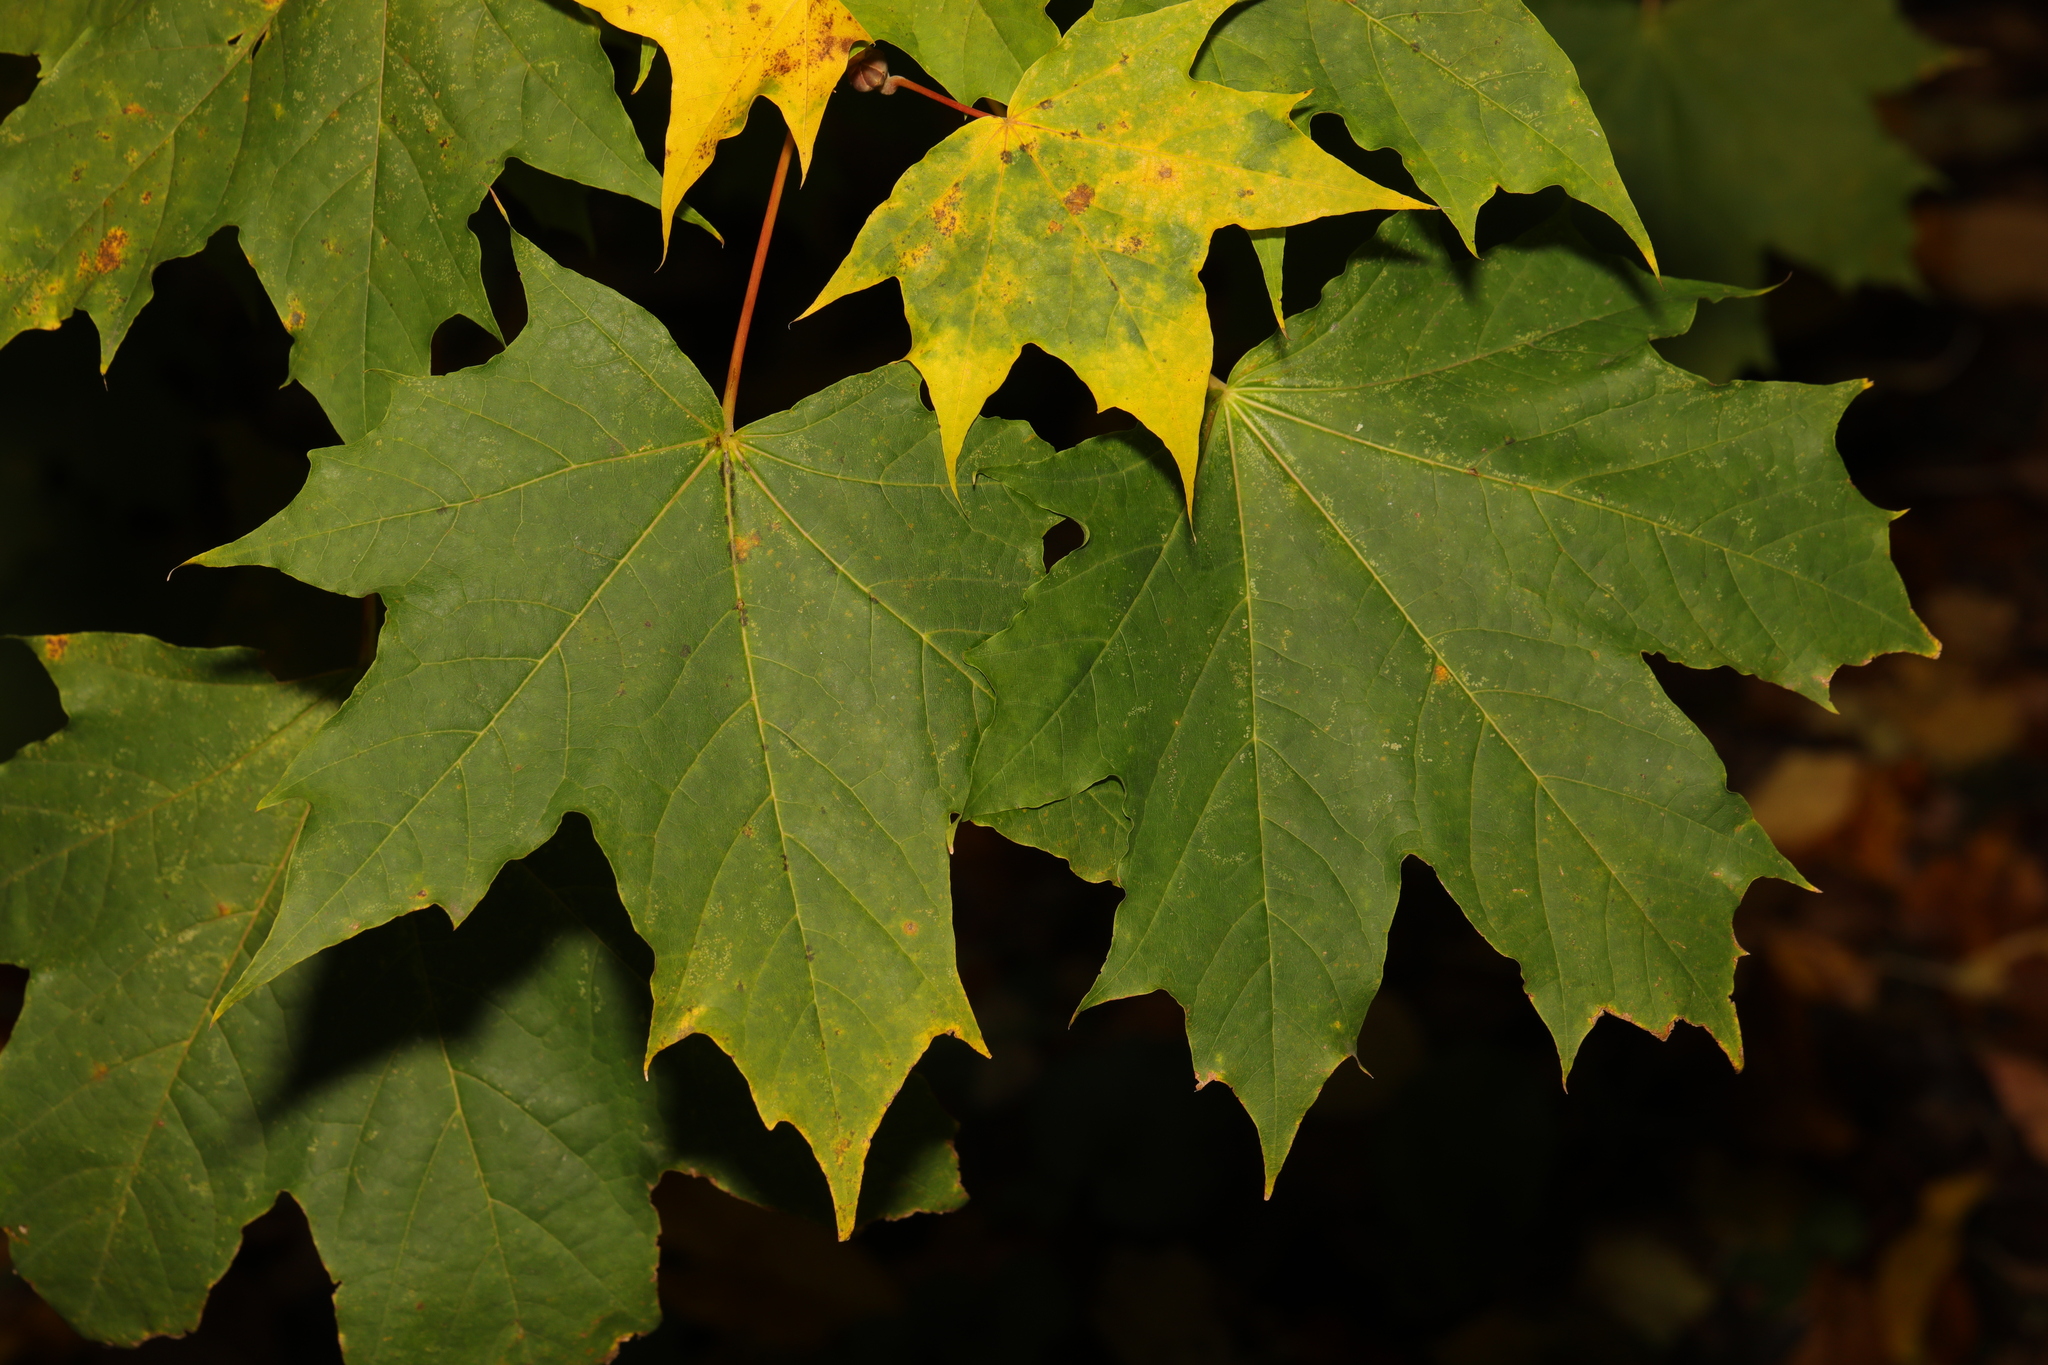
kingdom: Plantae
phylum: Tracheophyta
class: Magnoliopsida
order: Sapindales
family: Sapindaceae
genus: Acer
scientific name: Acer platanoides
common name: Norway maple
